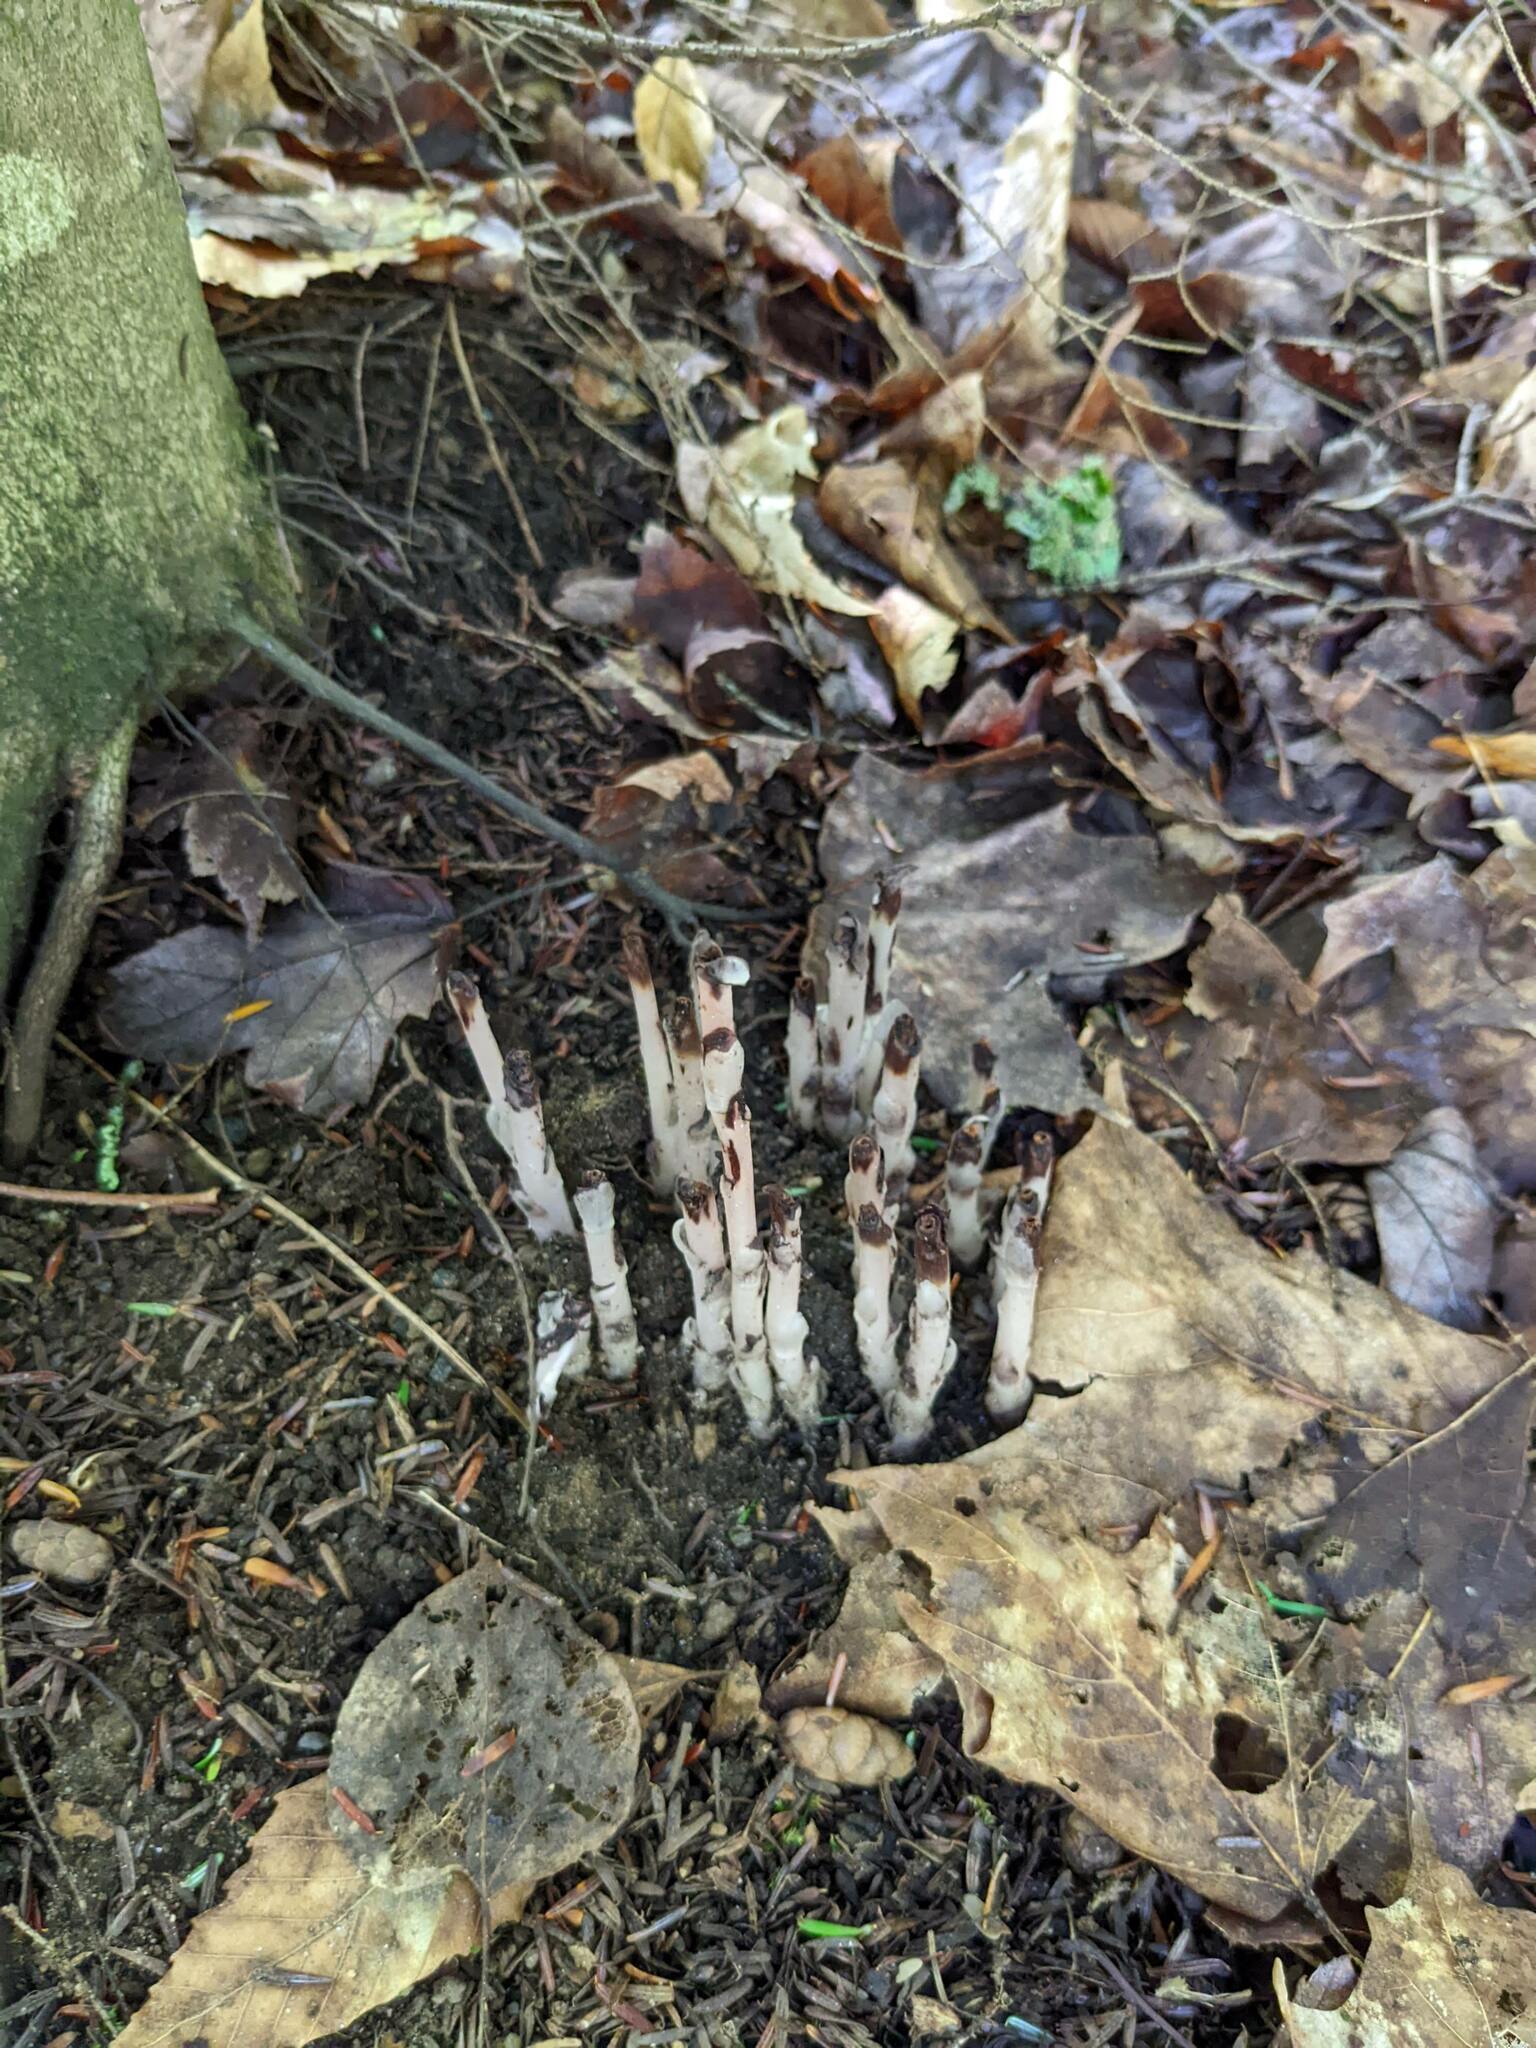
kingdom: Plantae
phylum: Tracheophyta
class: Magnoliopsida
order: Ericales
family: Ericaceae
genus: Monotropa
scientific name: Monotropa uniflora
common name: Convulsion root
